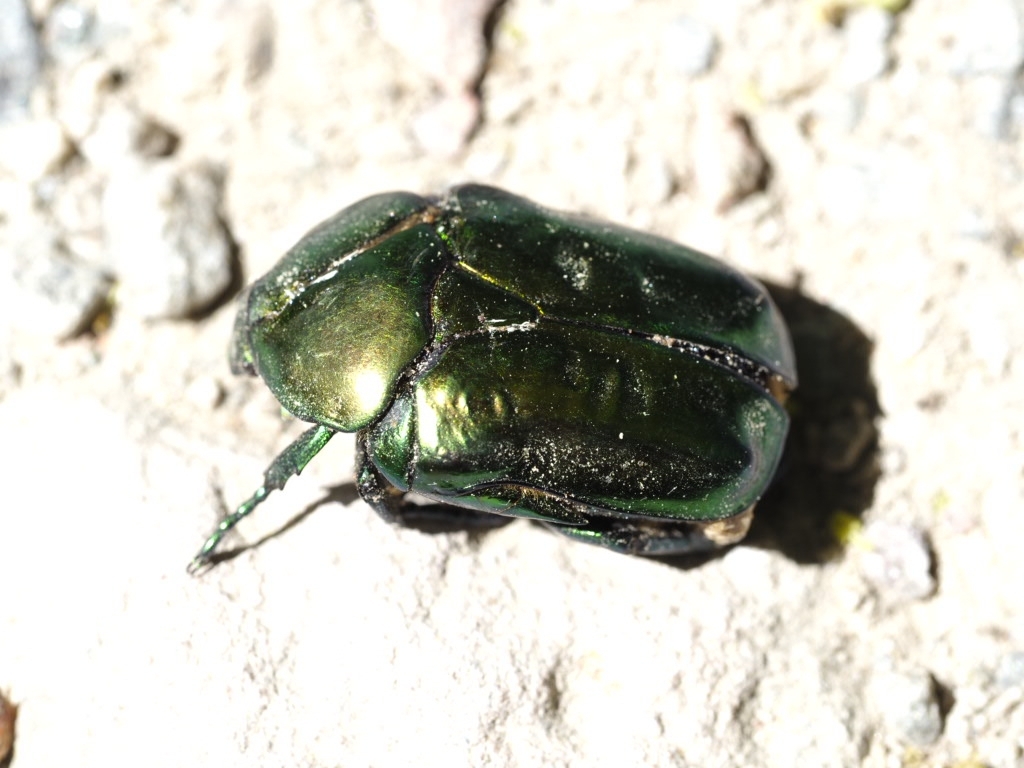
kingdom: Animalia
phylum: Arthropoda
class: Insecta
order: Coleoptera
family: Scarabaeidae
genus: Protaetia
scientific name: Protaetia speciosissima
